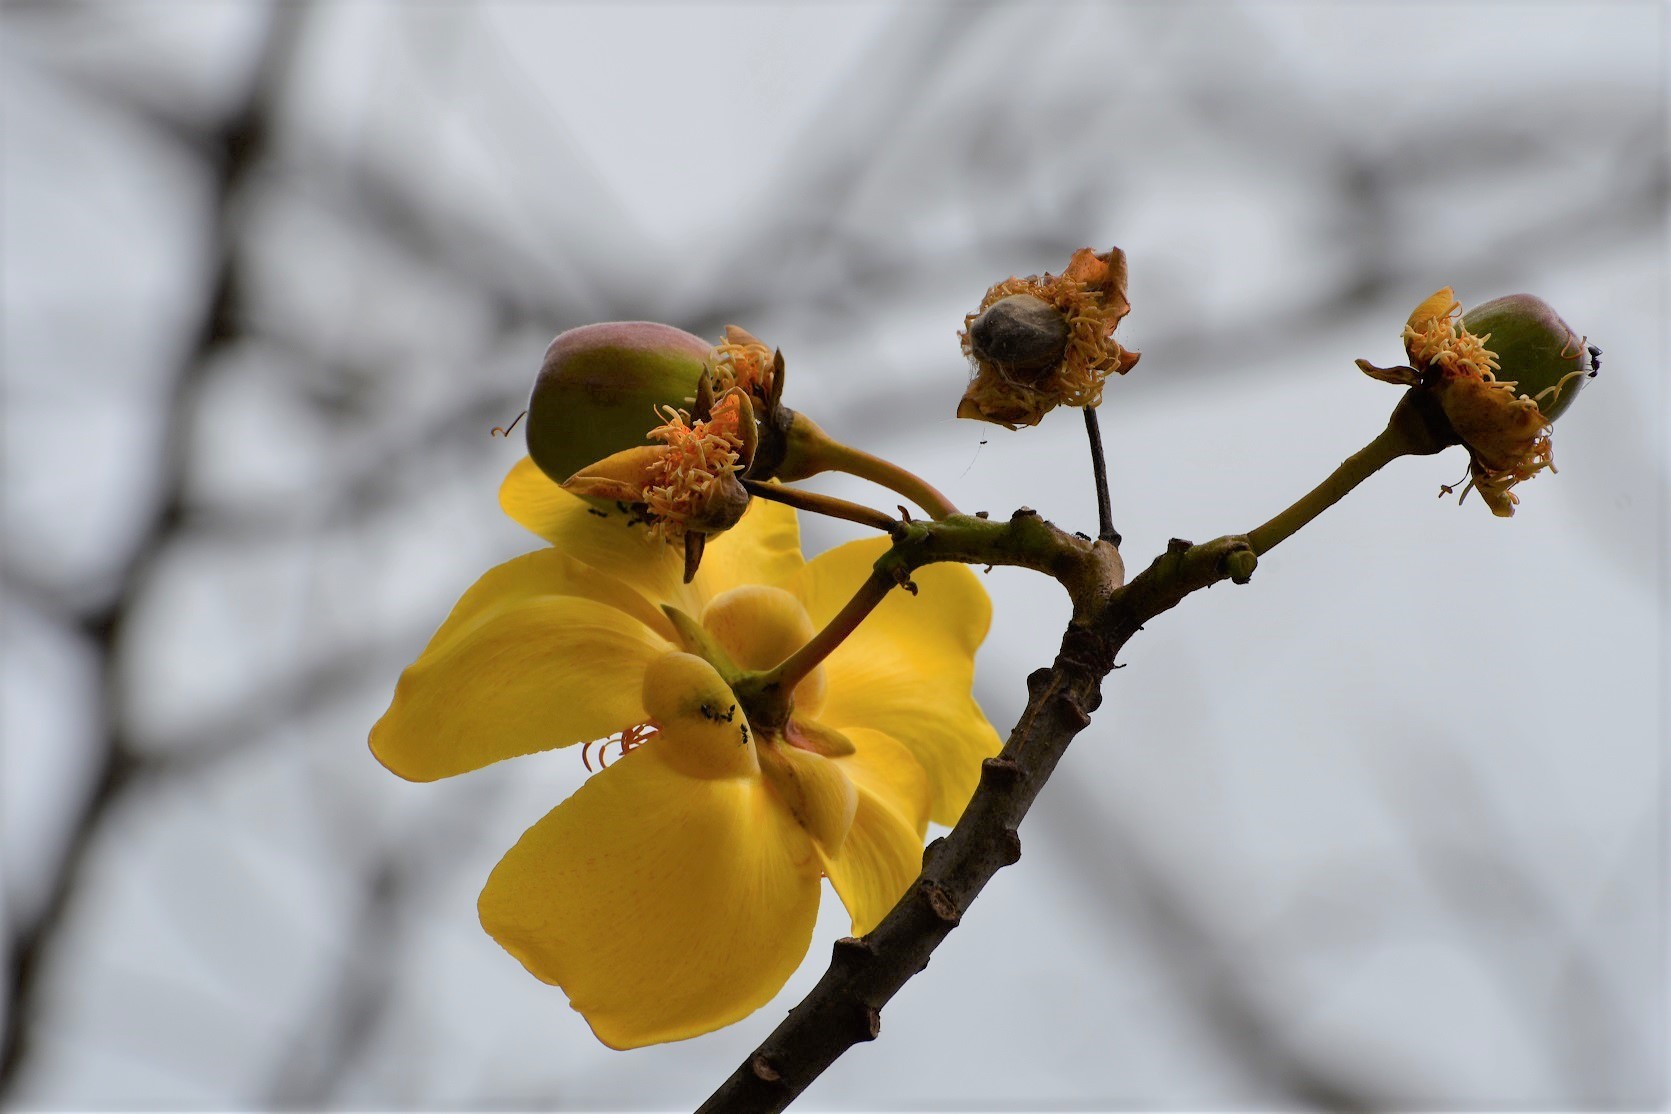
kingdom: Plantae
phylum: Tracheophyta
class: Magnoliopsida
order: Malvales
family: Cochlospermaceae
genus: Cochlospermum
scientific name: Cochlospermum vitifolium
